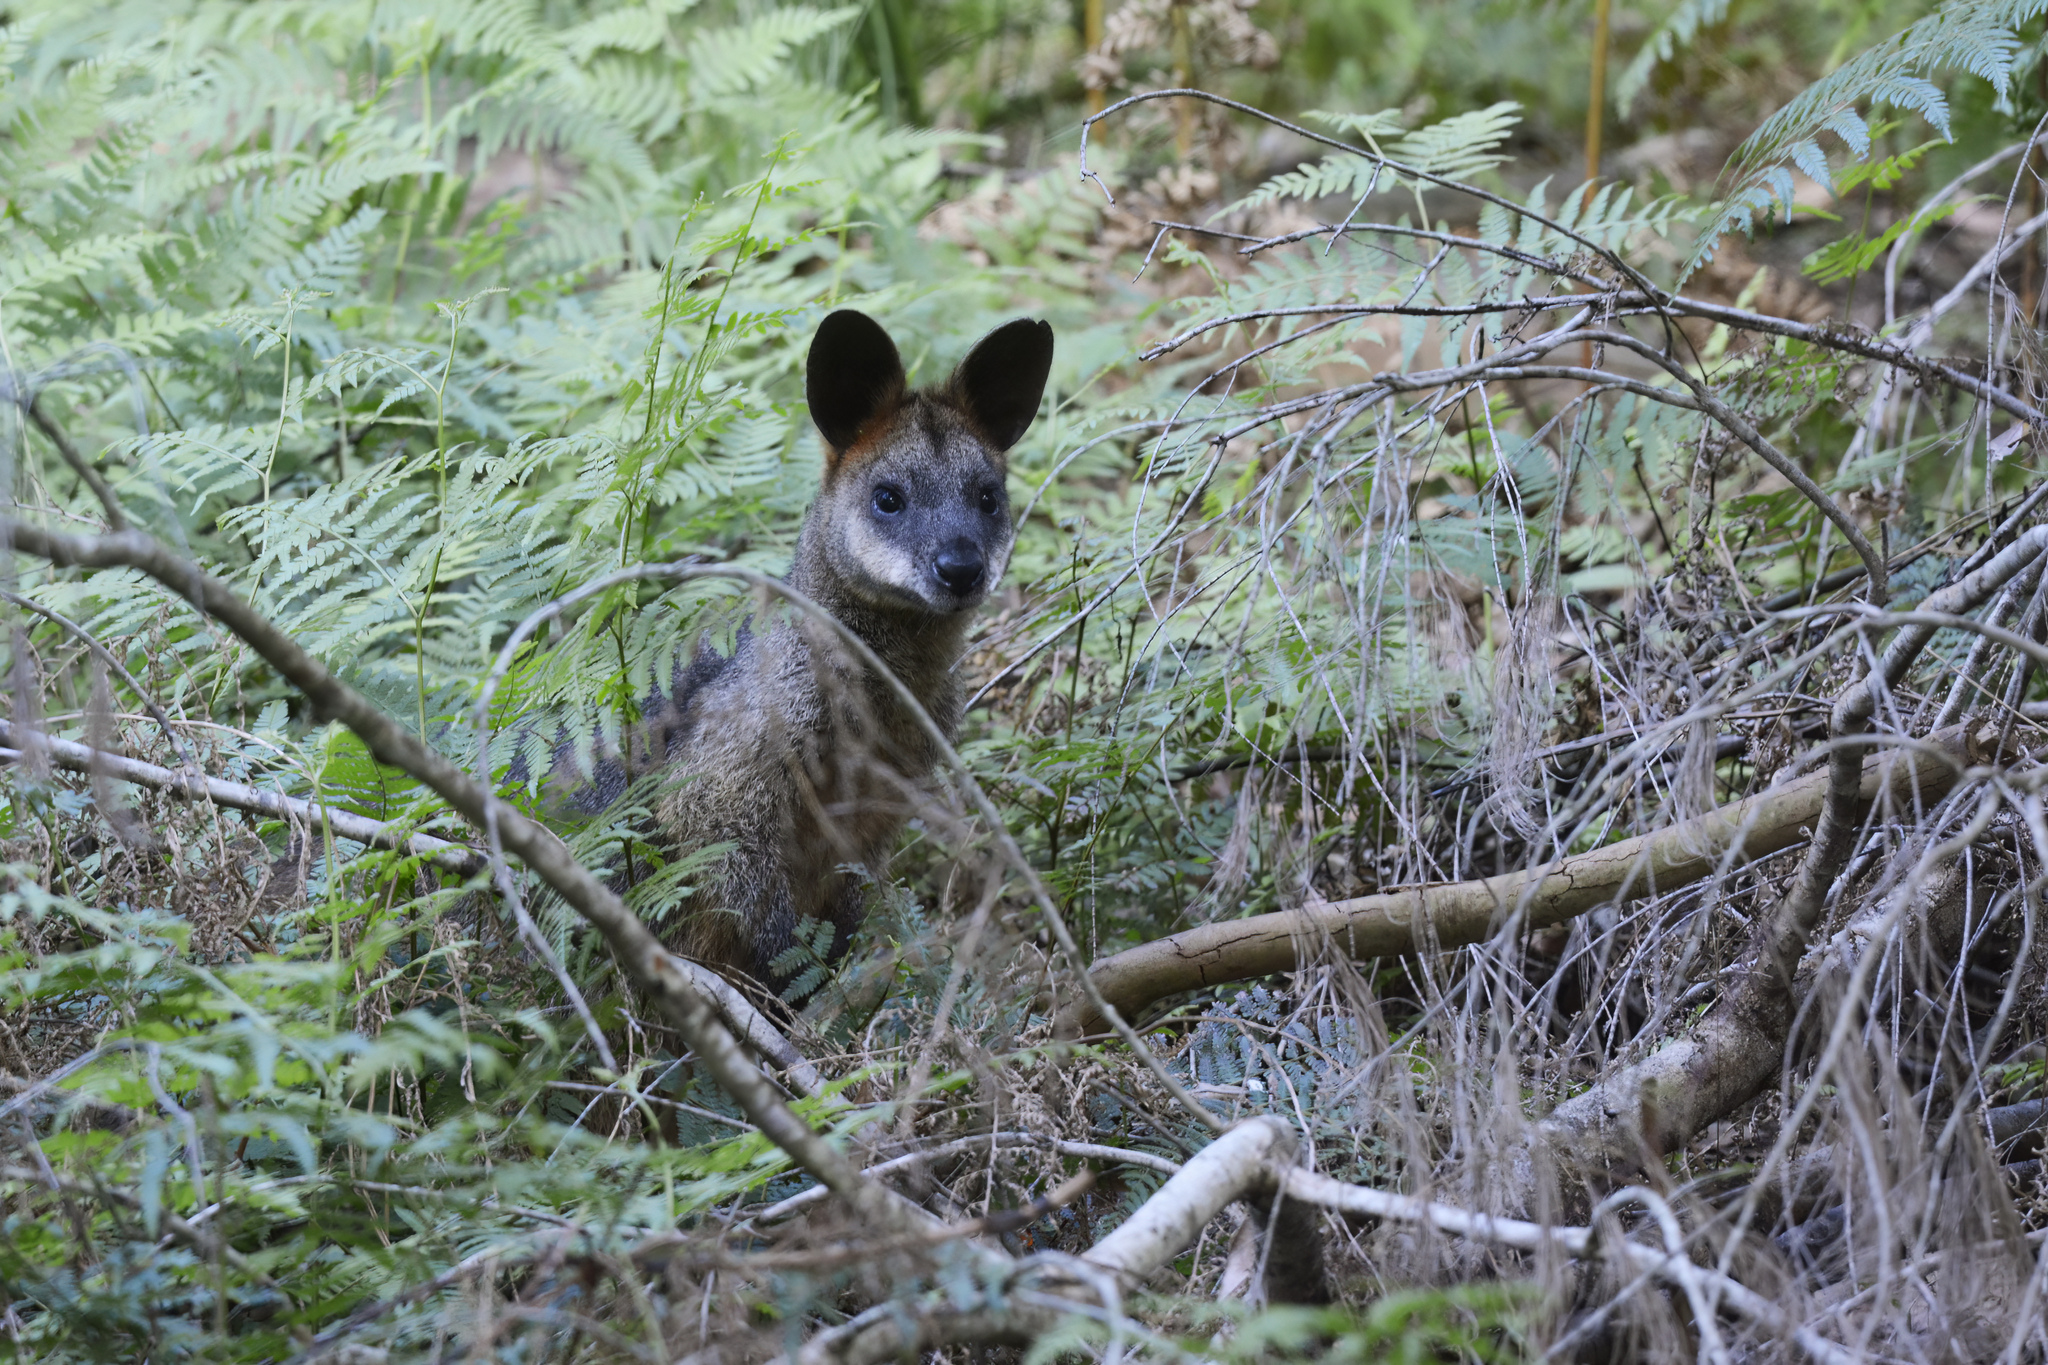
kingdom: Animalia
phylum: Chordata
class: Mammalia
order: Diprotodontia
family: Macropodidae
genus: Wallabia
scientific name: Wallabia bicolor
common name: Swamp wallaby
